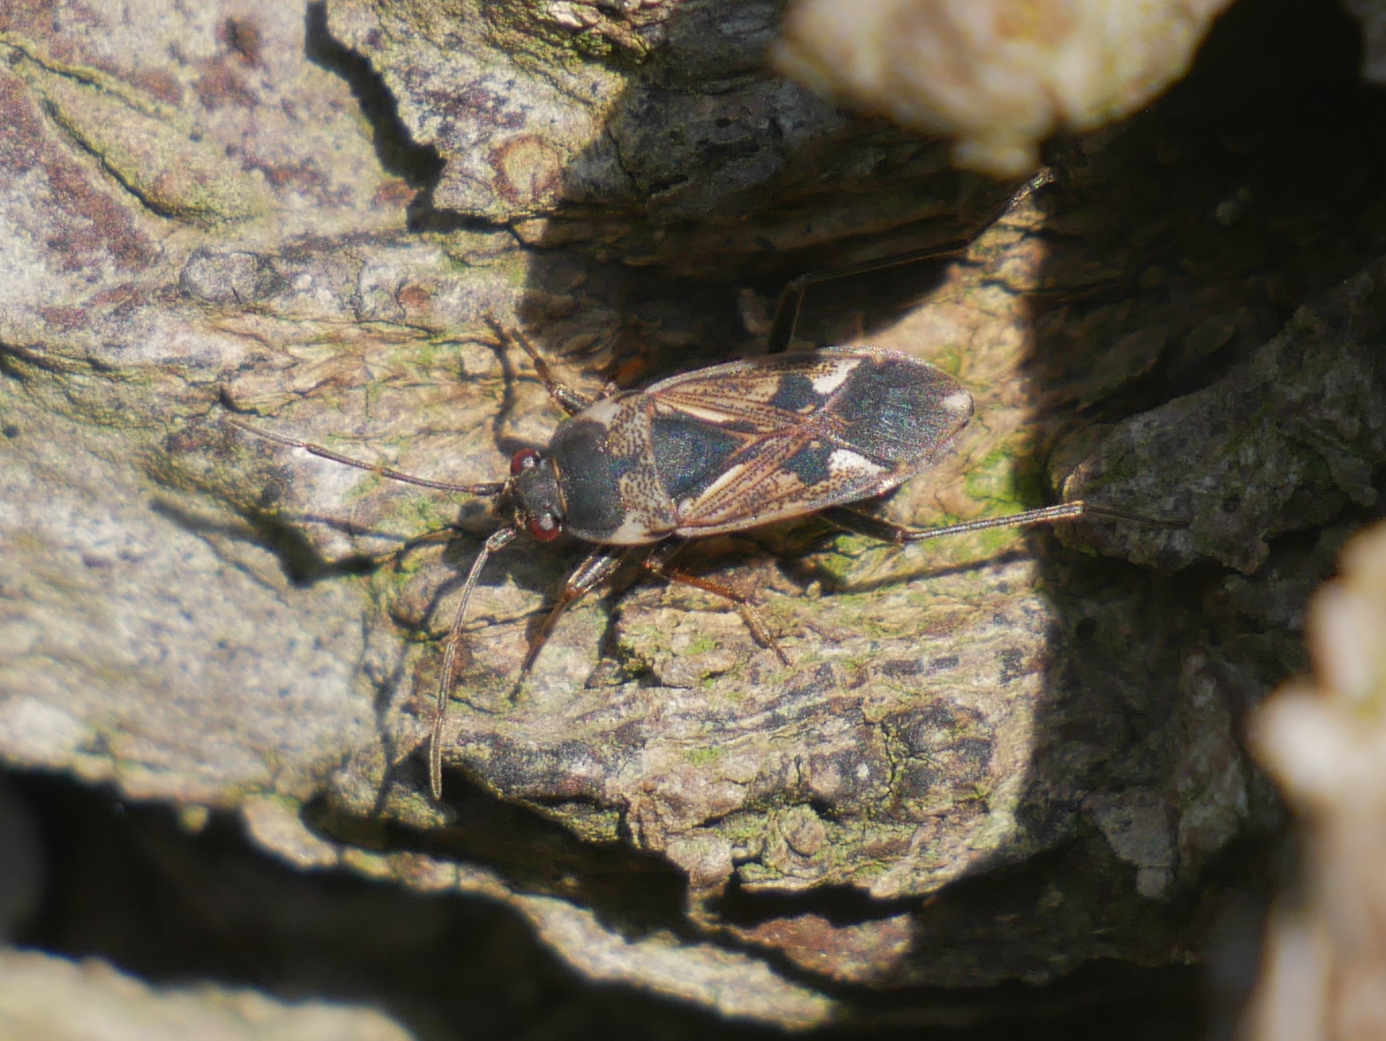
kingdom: Animalia
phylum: Arthropoda
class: Insecta
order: Hemiptera
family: Rhyparochromidae
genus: Rhyparochromus
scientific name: Rhyparochromus vulgaris
